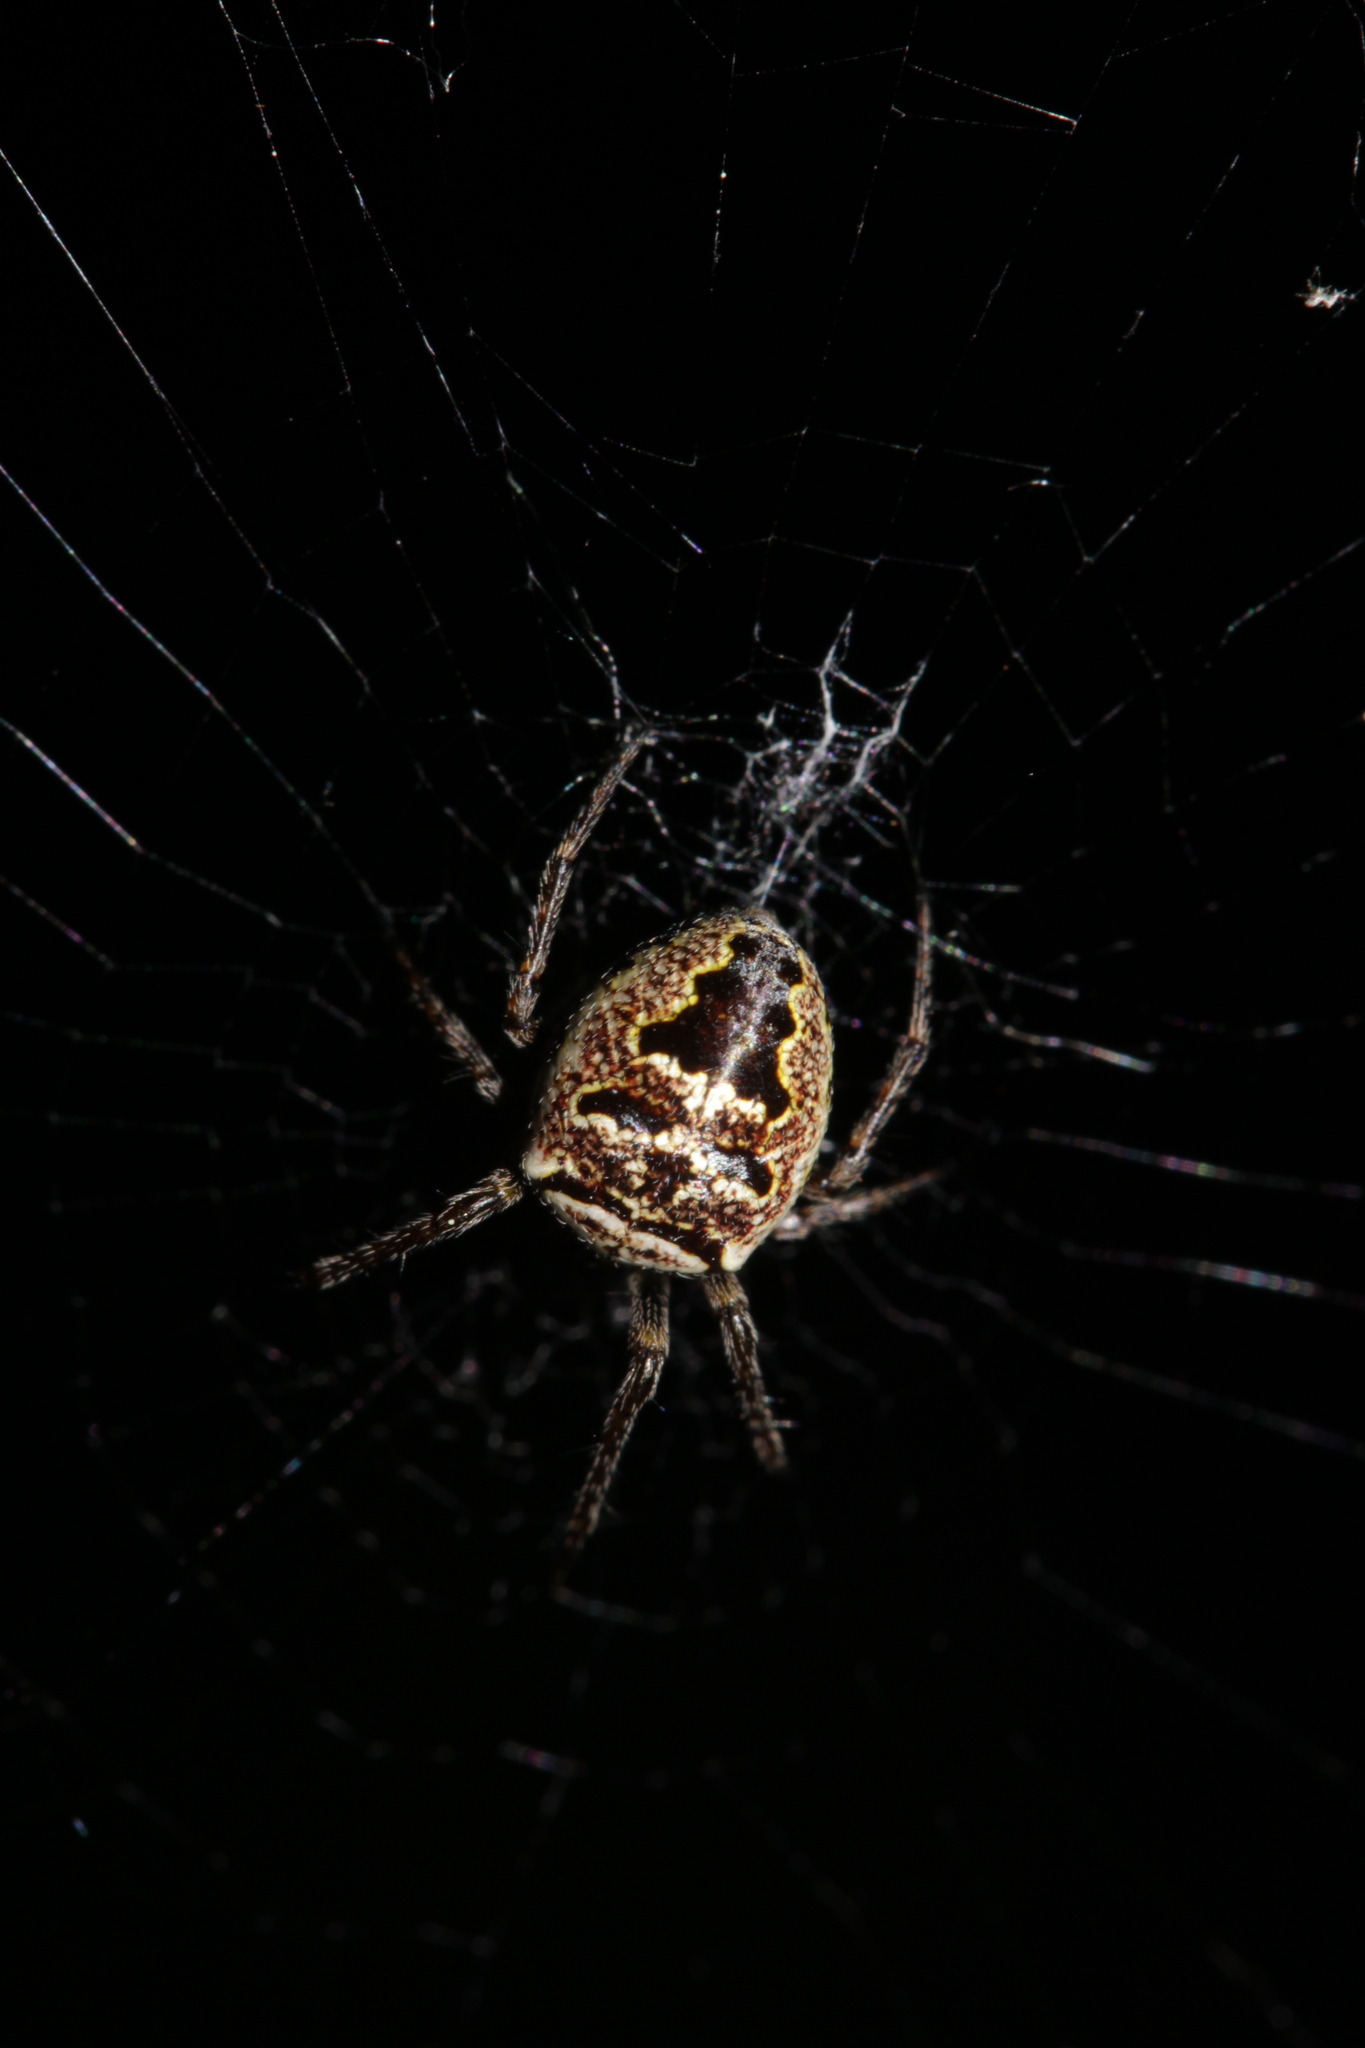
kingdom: Animalia
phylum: Arthropoda
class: Arachnida
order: Araneae
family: Araneidae
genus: Zilla
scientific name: Zilla diodia
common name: Zilla diodia
